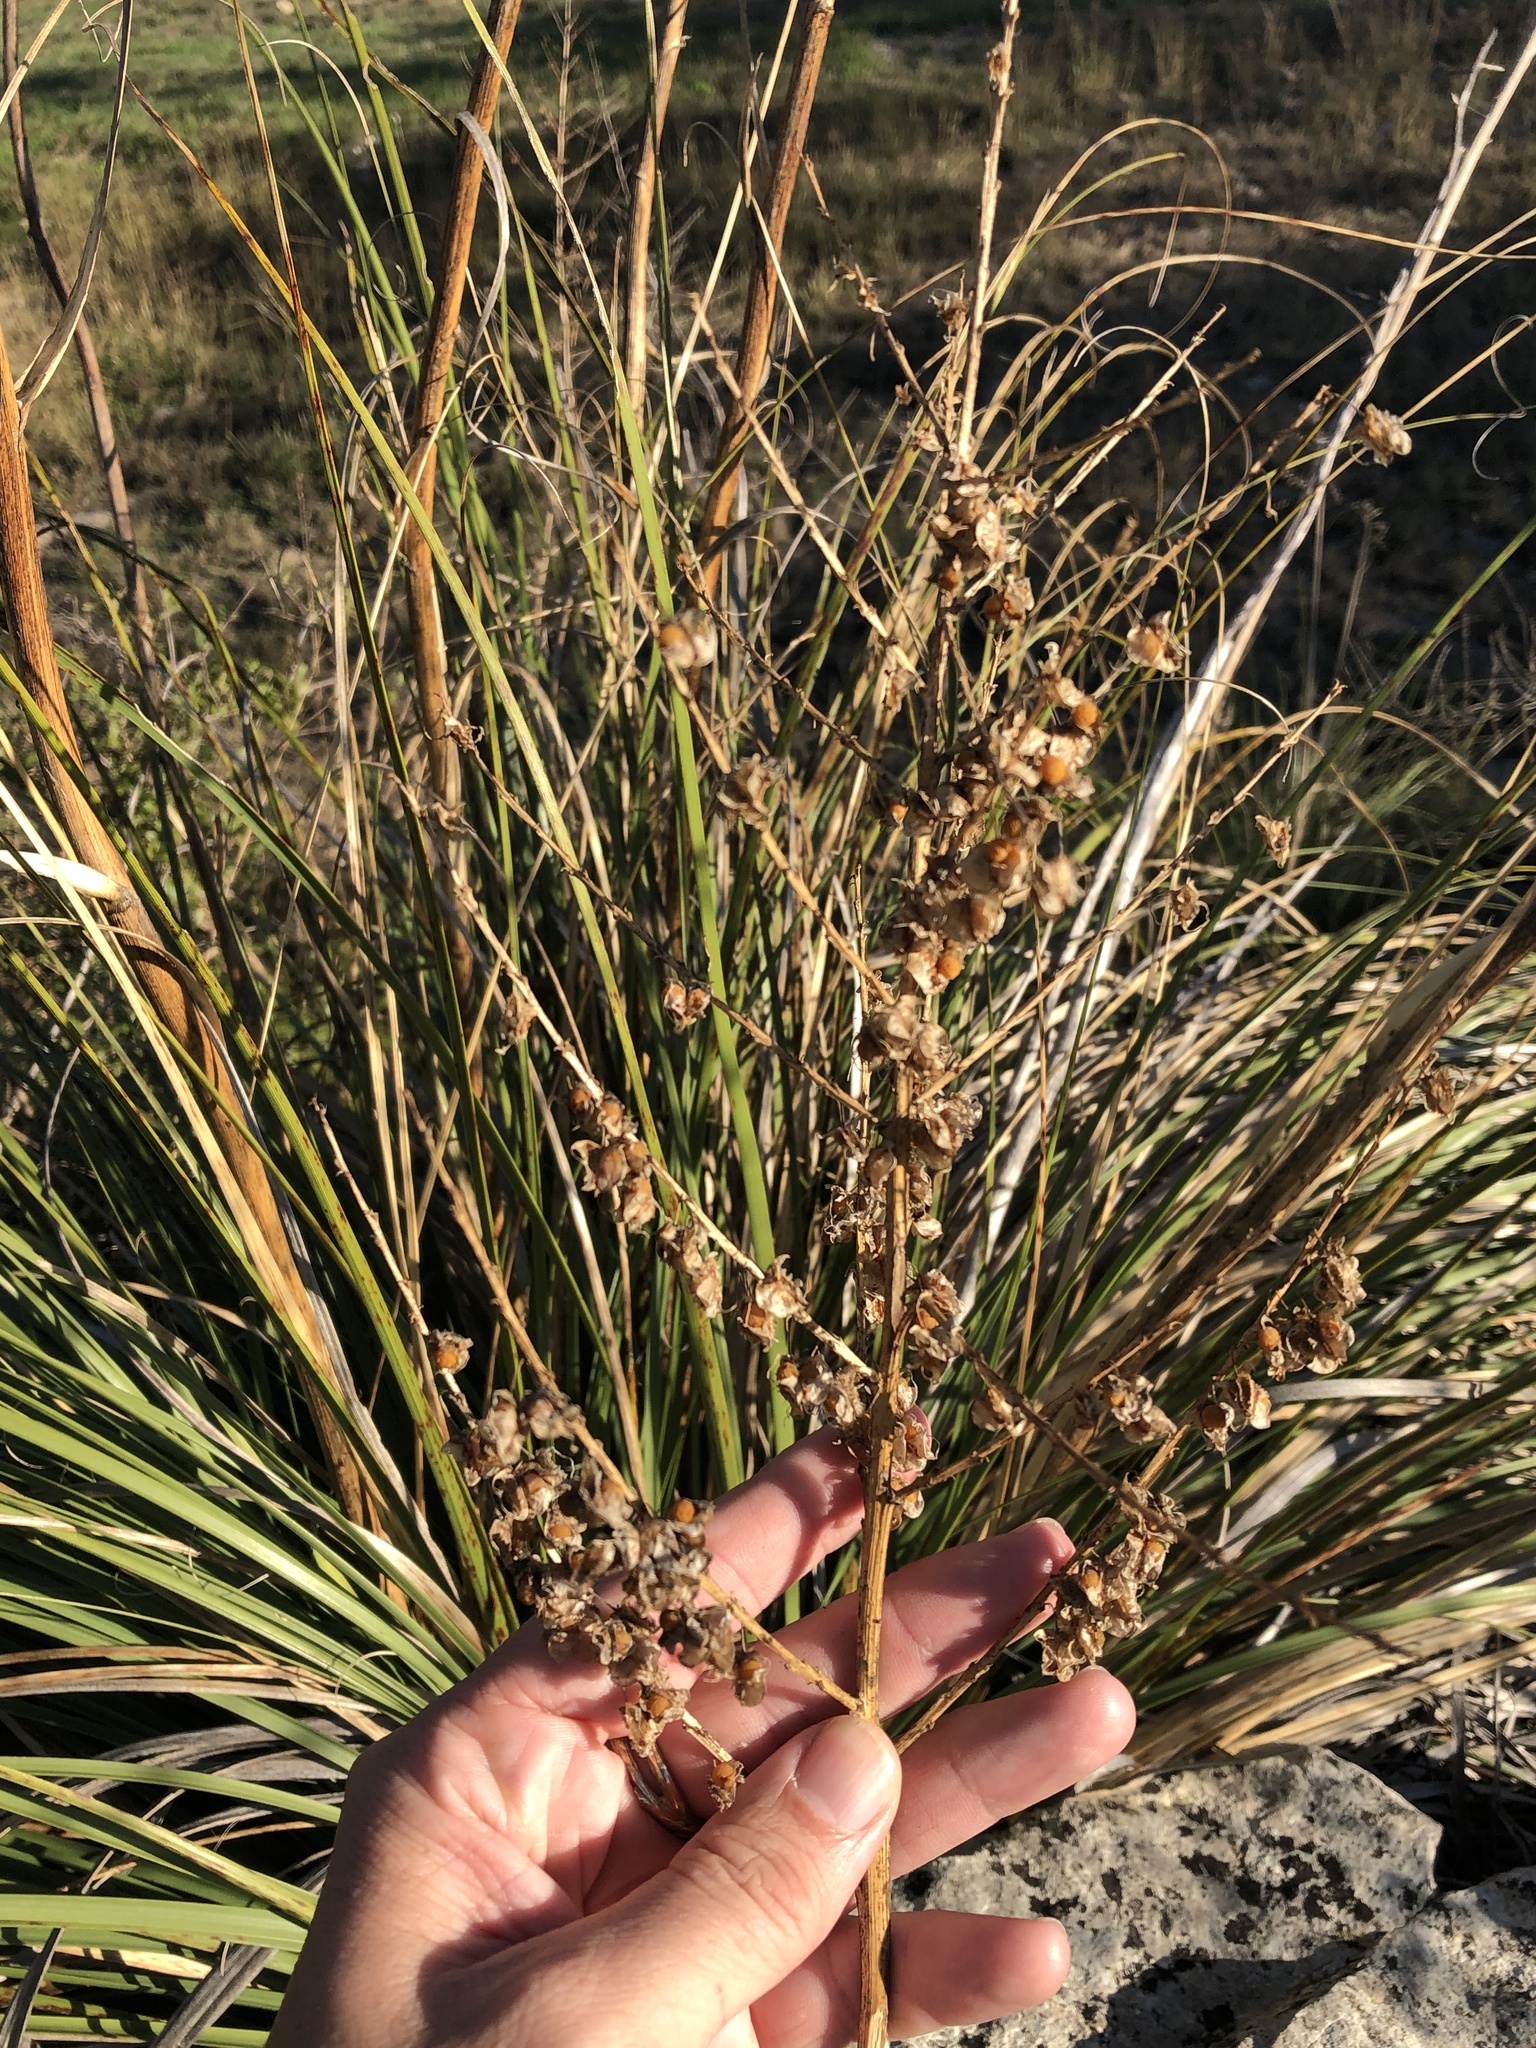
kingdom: Plantae
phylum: Tracheophyta
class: Liliopsida
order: Asparagales
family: Asparagaceae
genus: Nolina
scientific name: Nolina lindheimeriana
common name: Lindheimer's bear-grass
